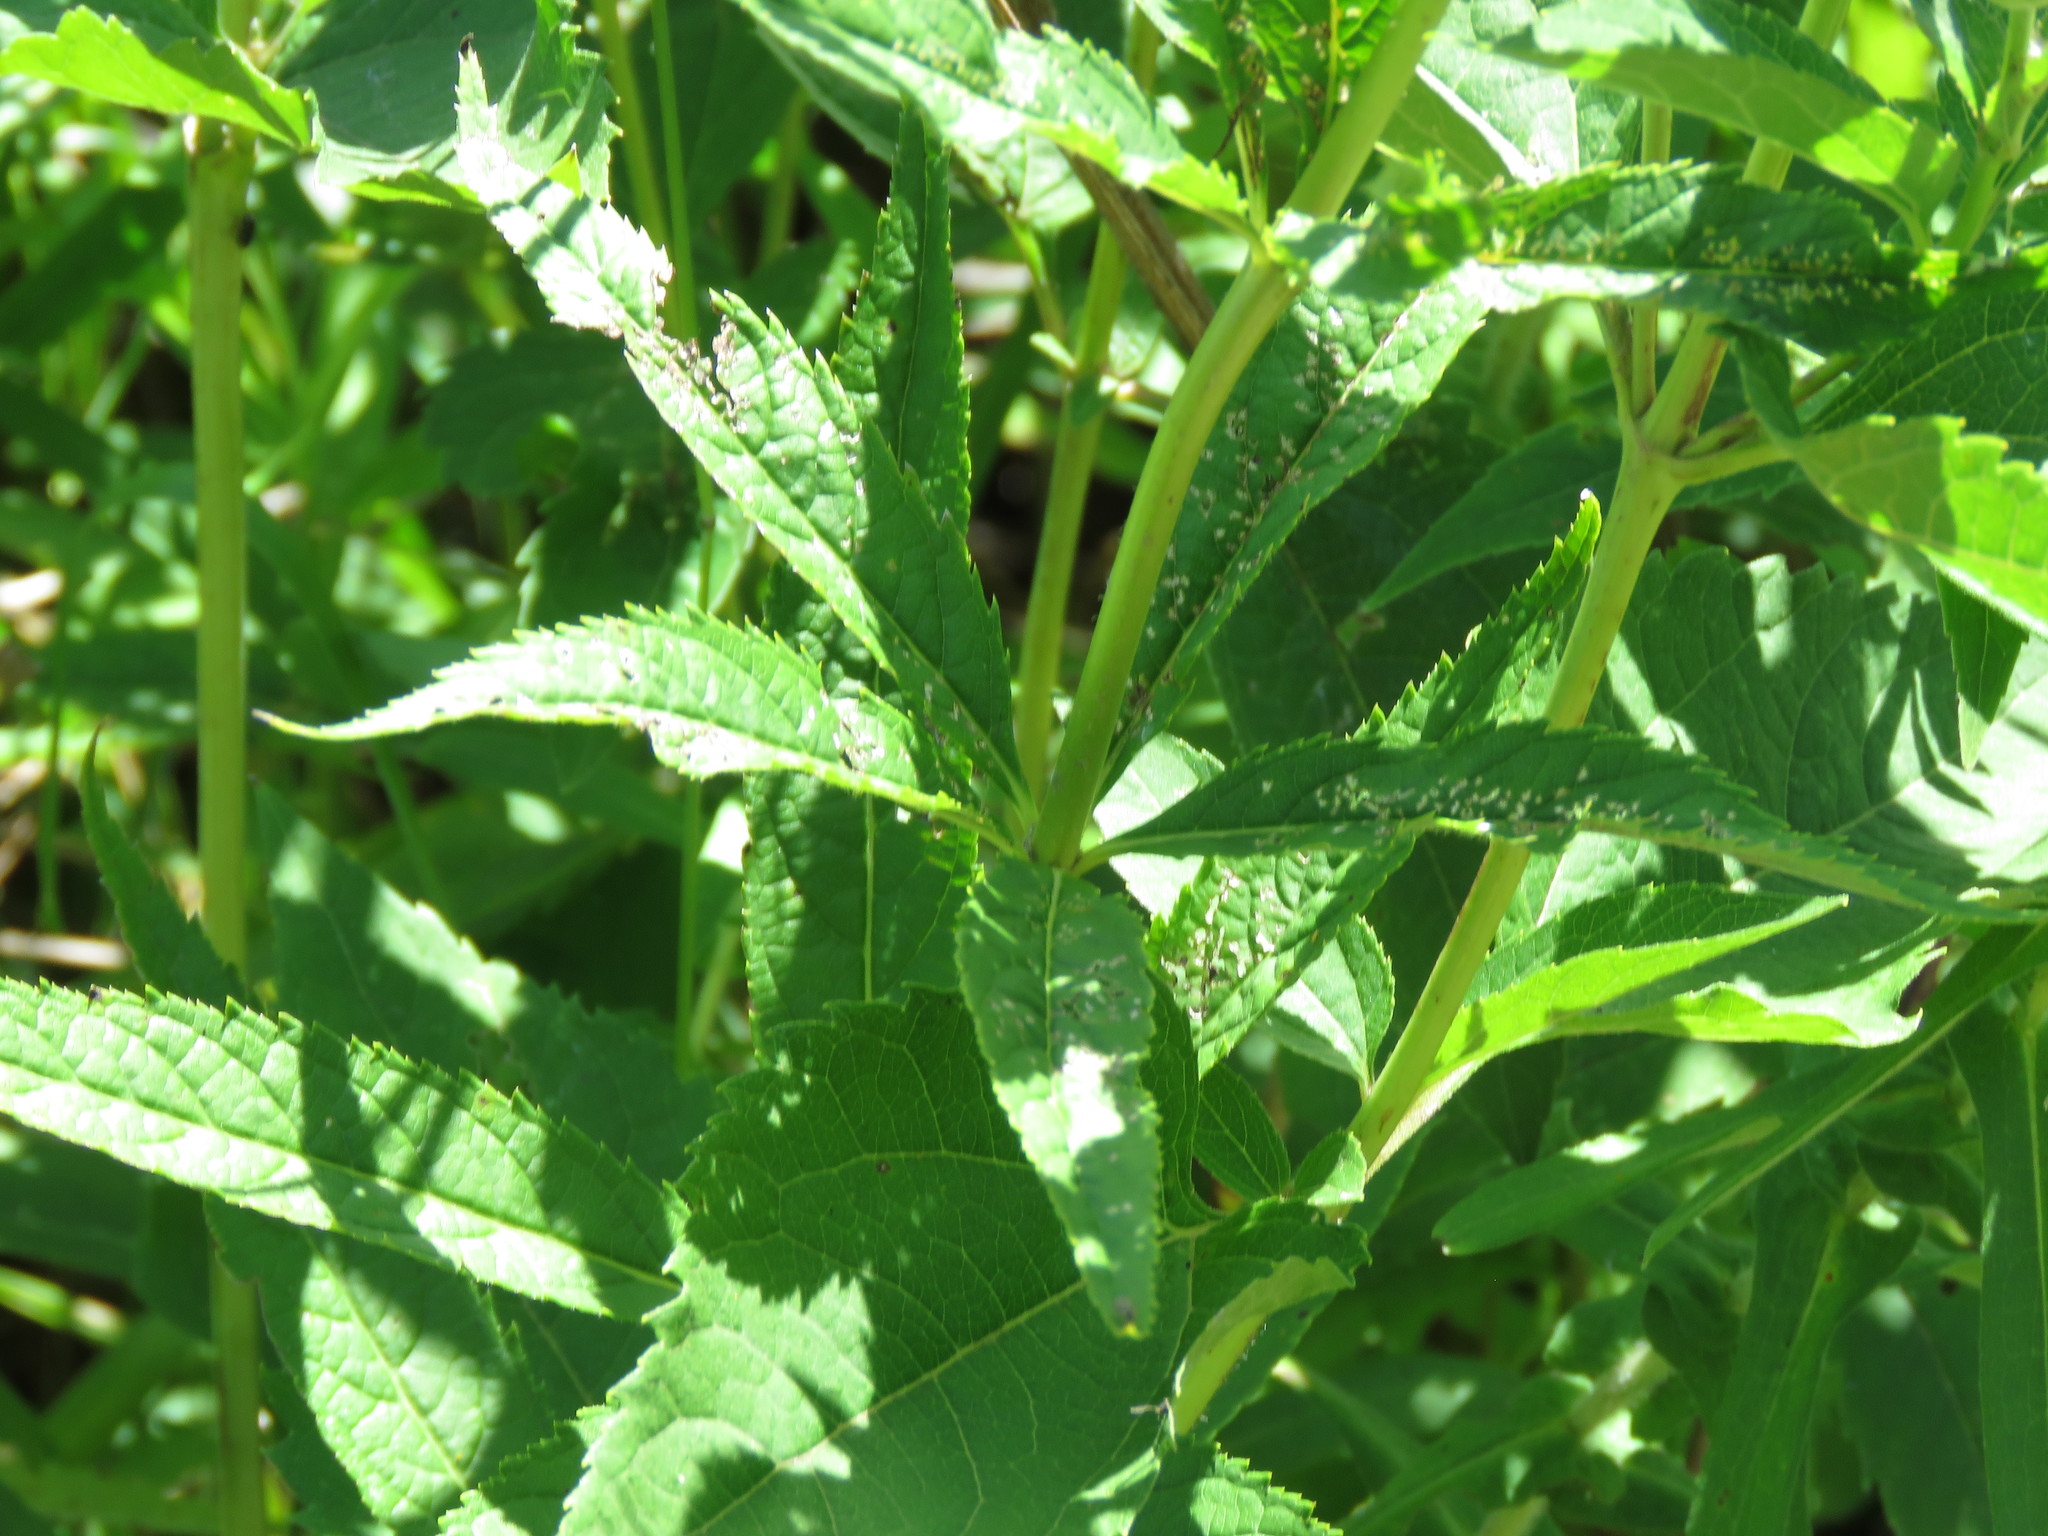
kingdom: Plantae
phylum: Tracheophyta
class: Magnoliopsida
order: Lamiales
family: Plantaginaceae
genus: Veronicastrum
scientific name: Veronicastrum virginicum
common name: Blackroot
